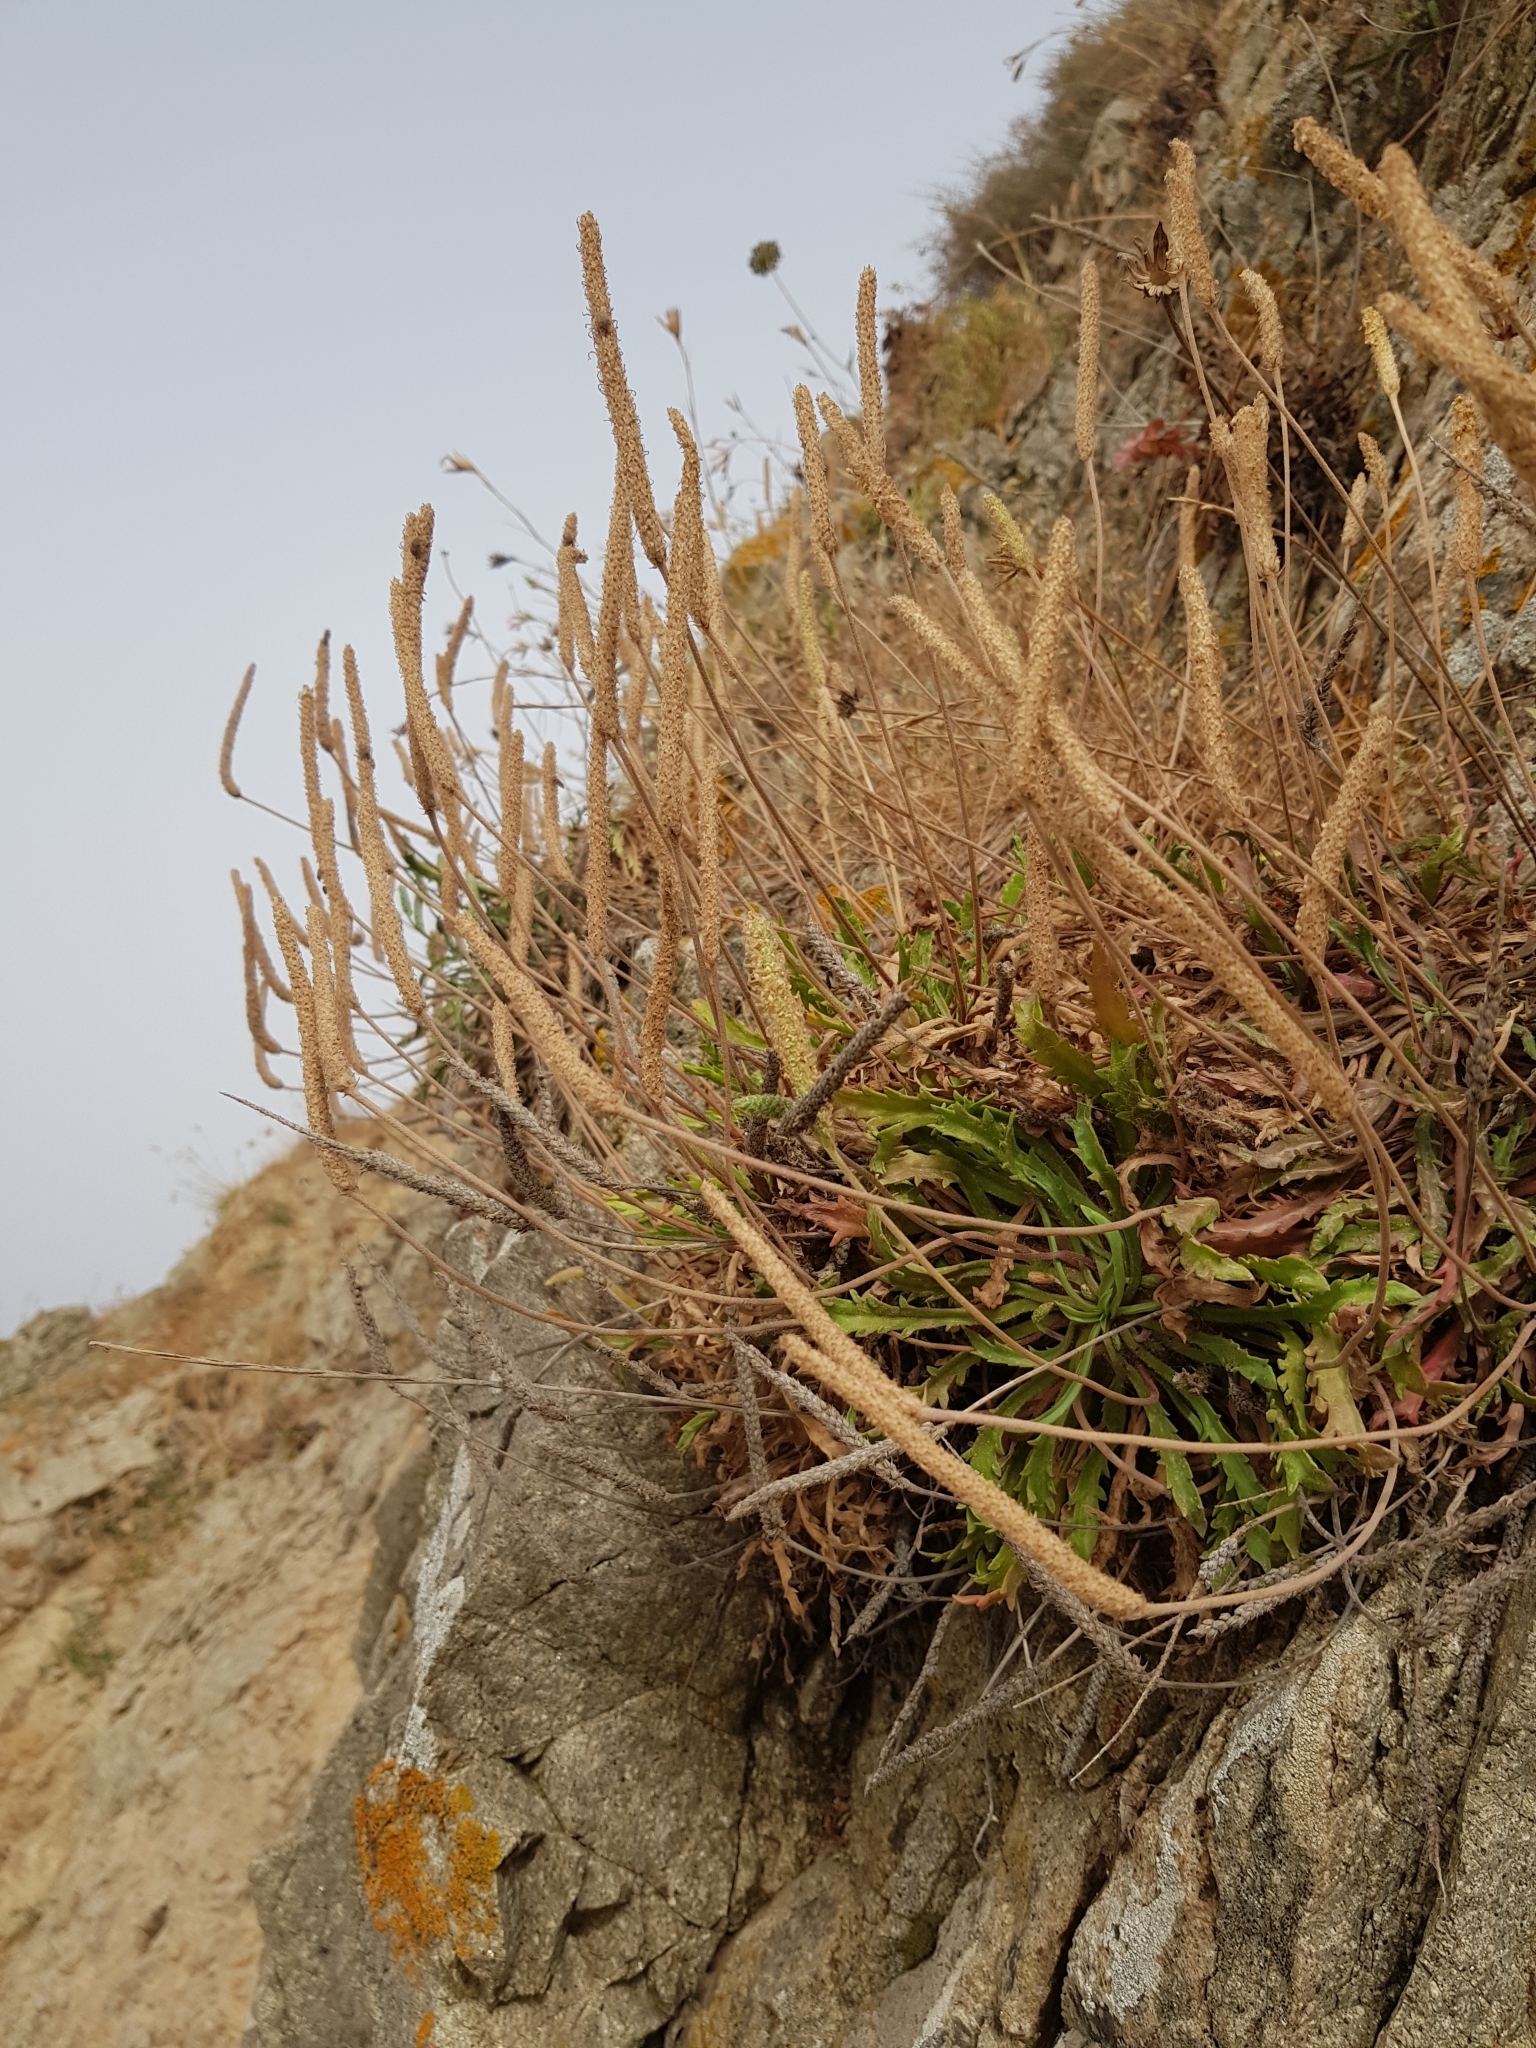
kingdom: Plantae
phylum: Tracheophyta
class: Magnoliopsida
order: Lamiales
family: Plantaginaceae
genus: Plantago
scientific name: Plantago coronopus
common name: Buck's-horn plantain
